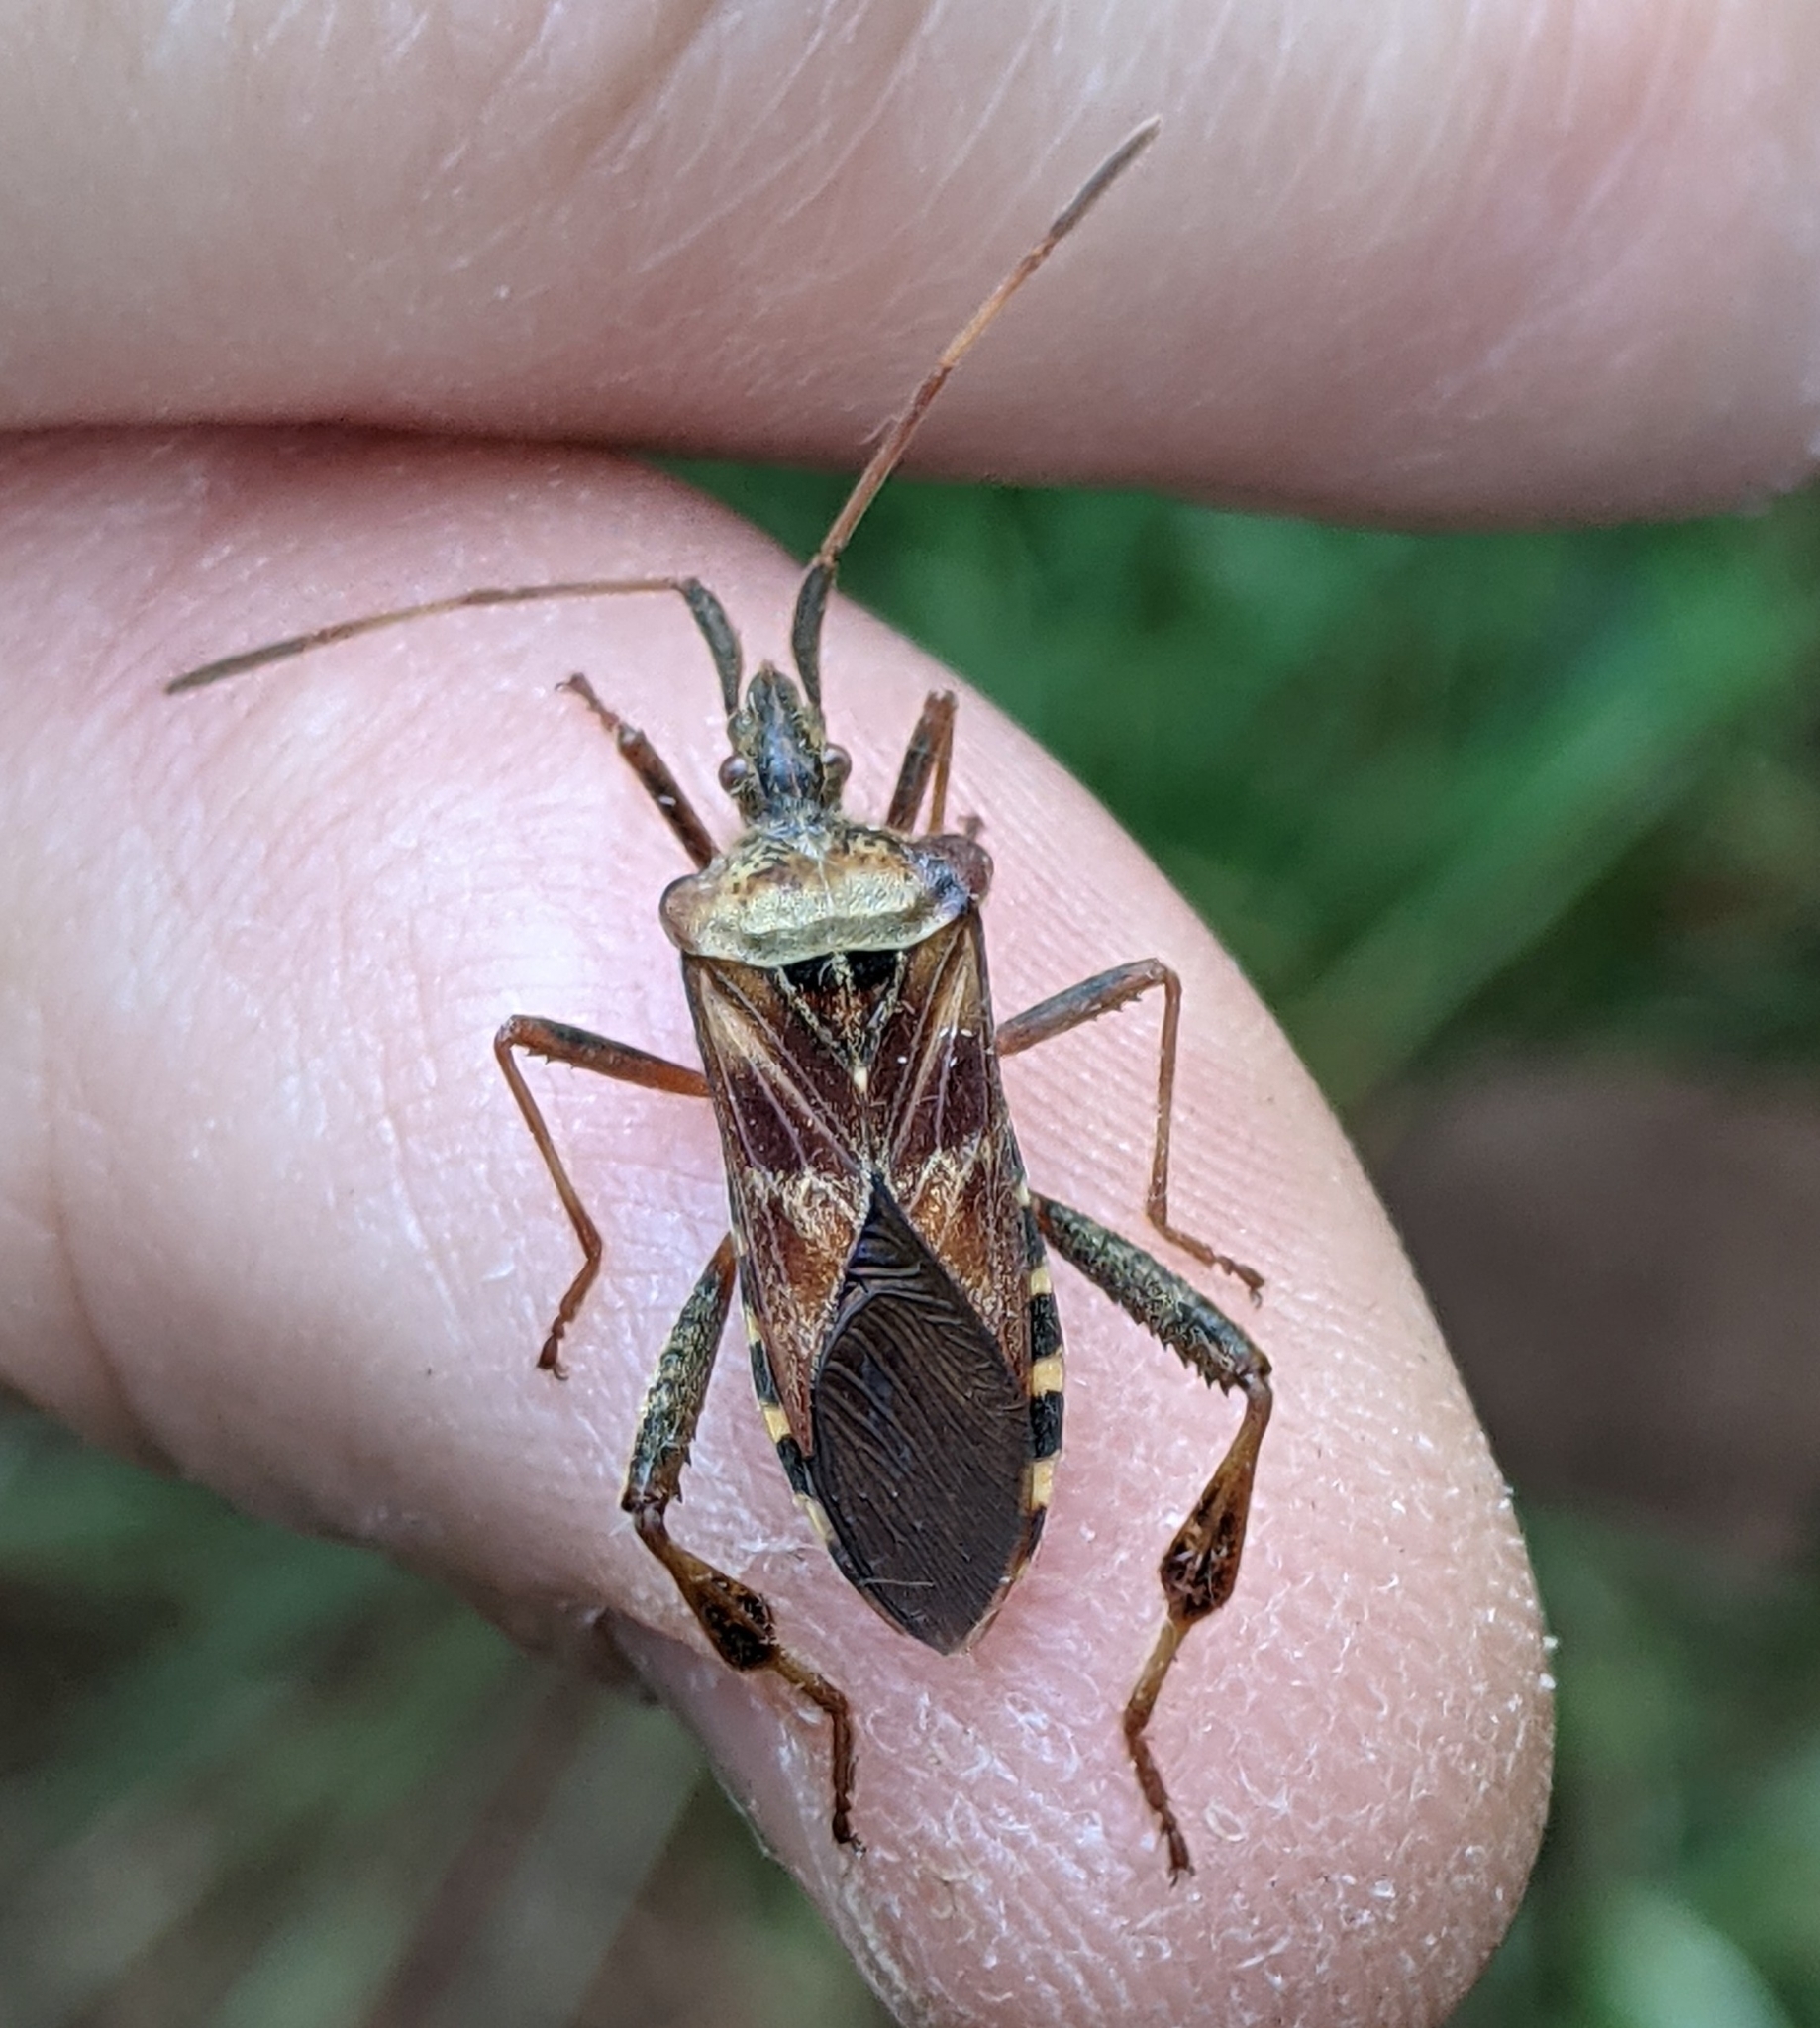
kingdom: Animalia
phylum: Arthropoda
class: Insecta
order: Hemiptera
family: Coreidae
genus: Leptoglossus
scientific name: Leptoglossus occidentalis
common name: Western conifer-seed bug
